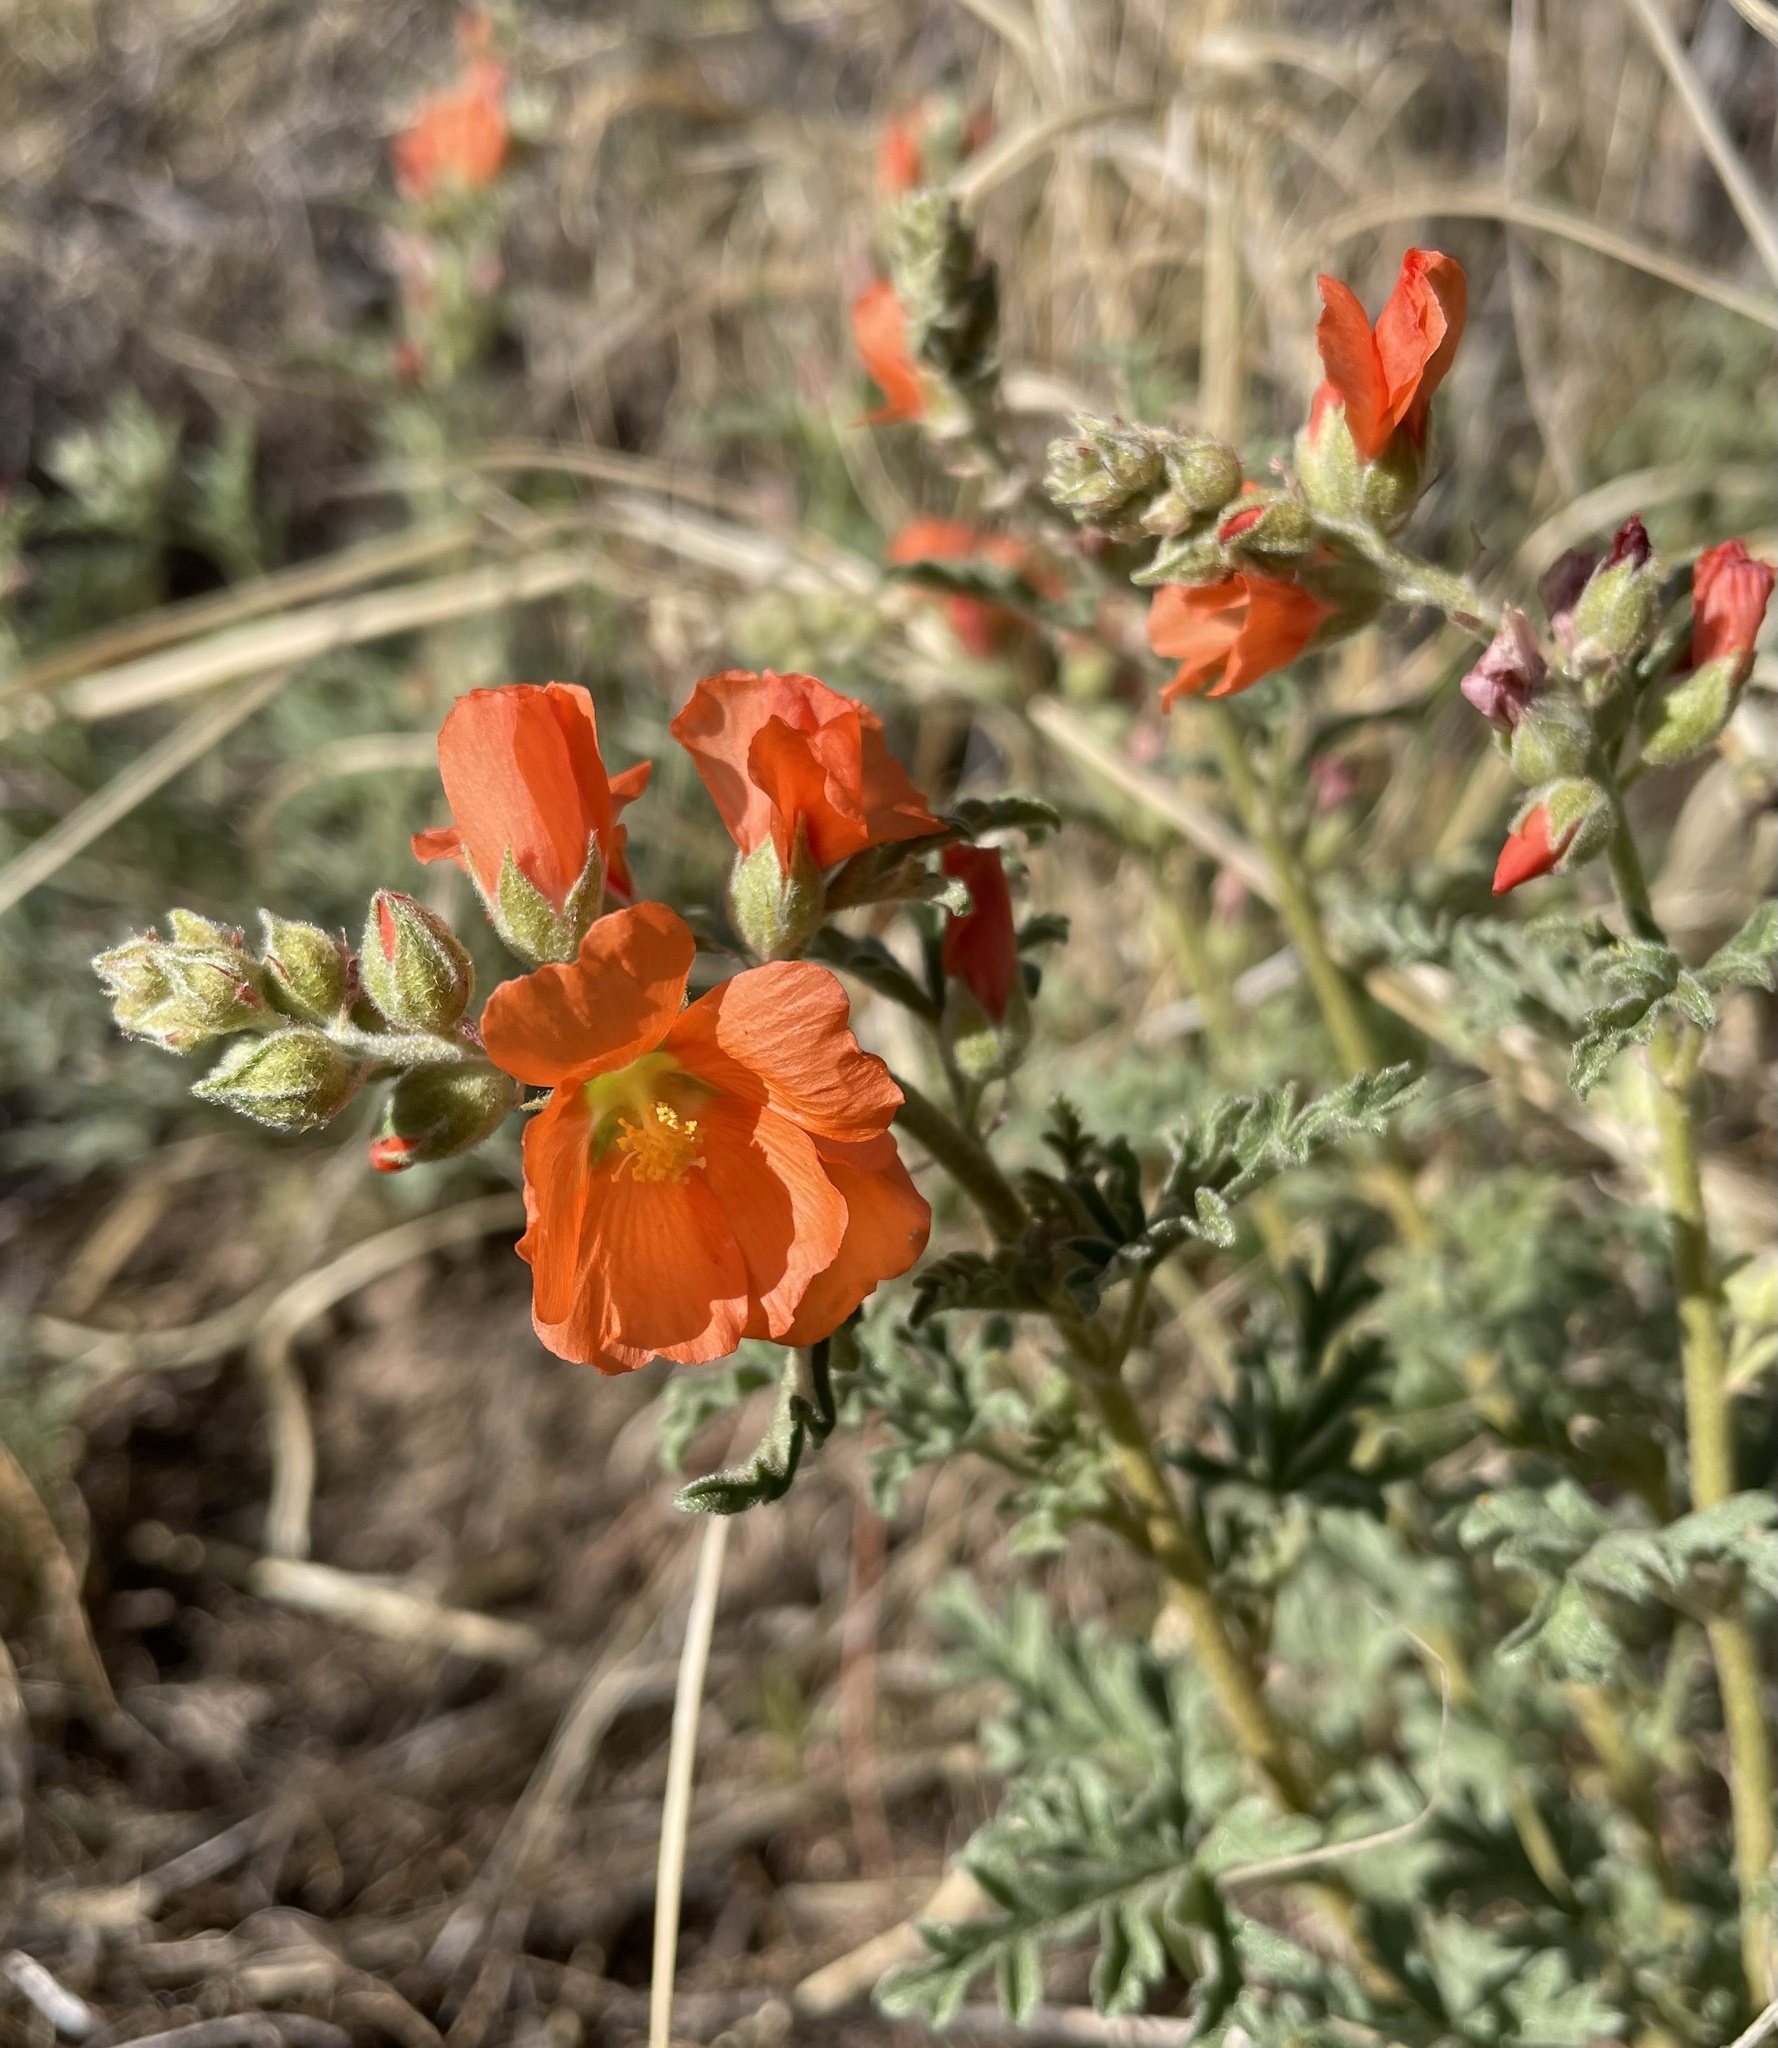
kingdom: Plantae
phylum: Tracheophyta
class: Magnoliopsida
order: Malvales
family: Malvaceae
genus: Sphaeralcea
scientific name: Sphaeralcea coccinea
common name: Moss-rose
